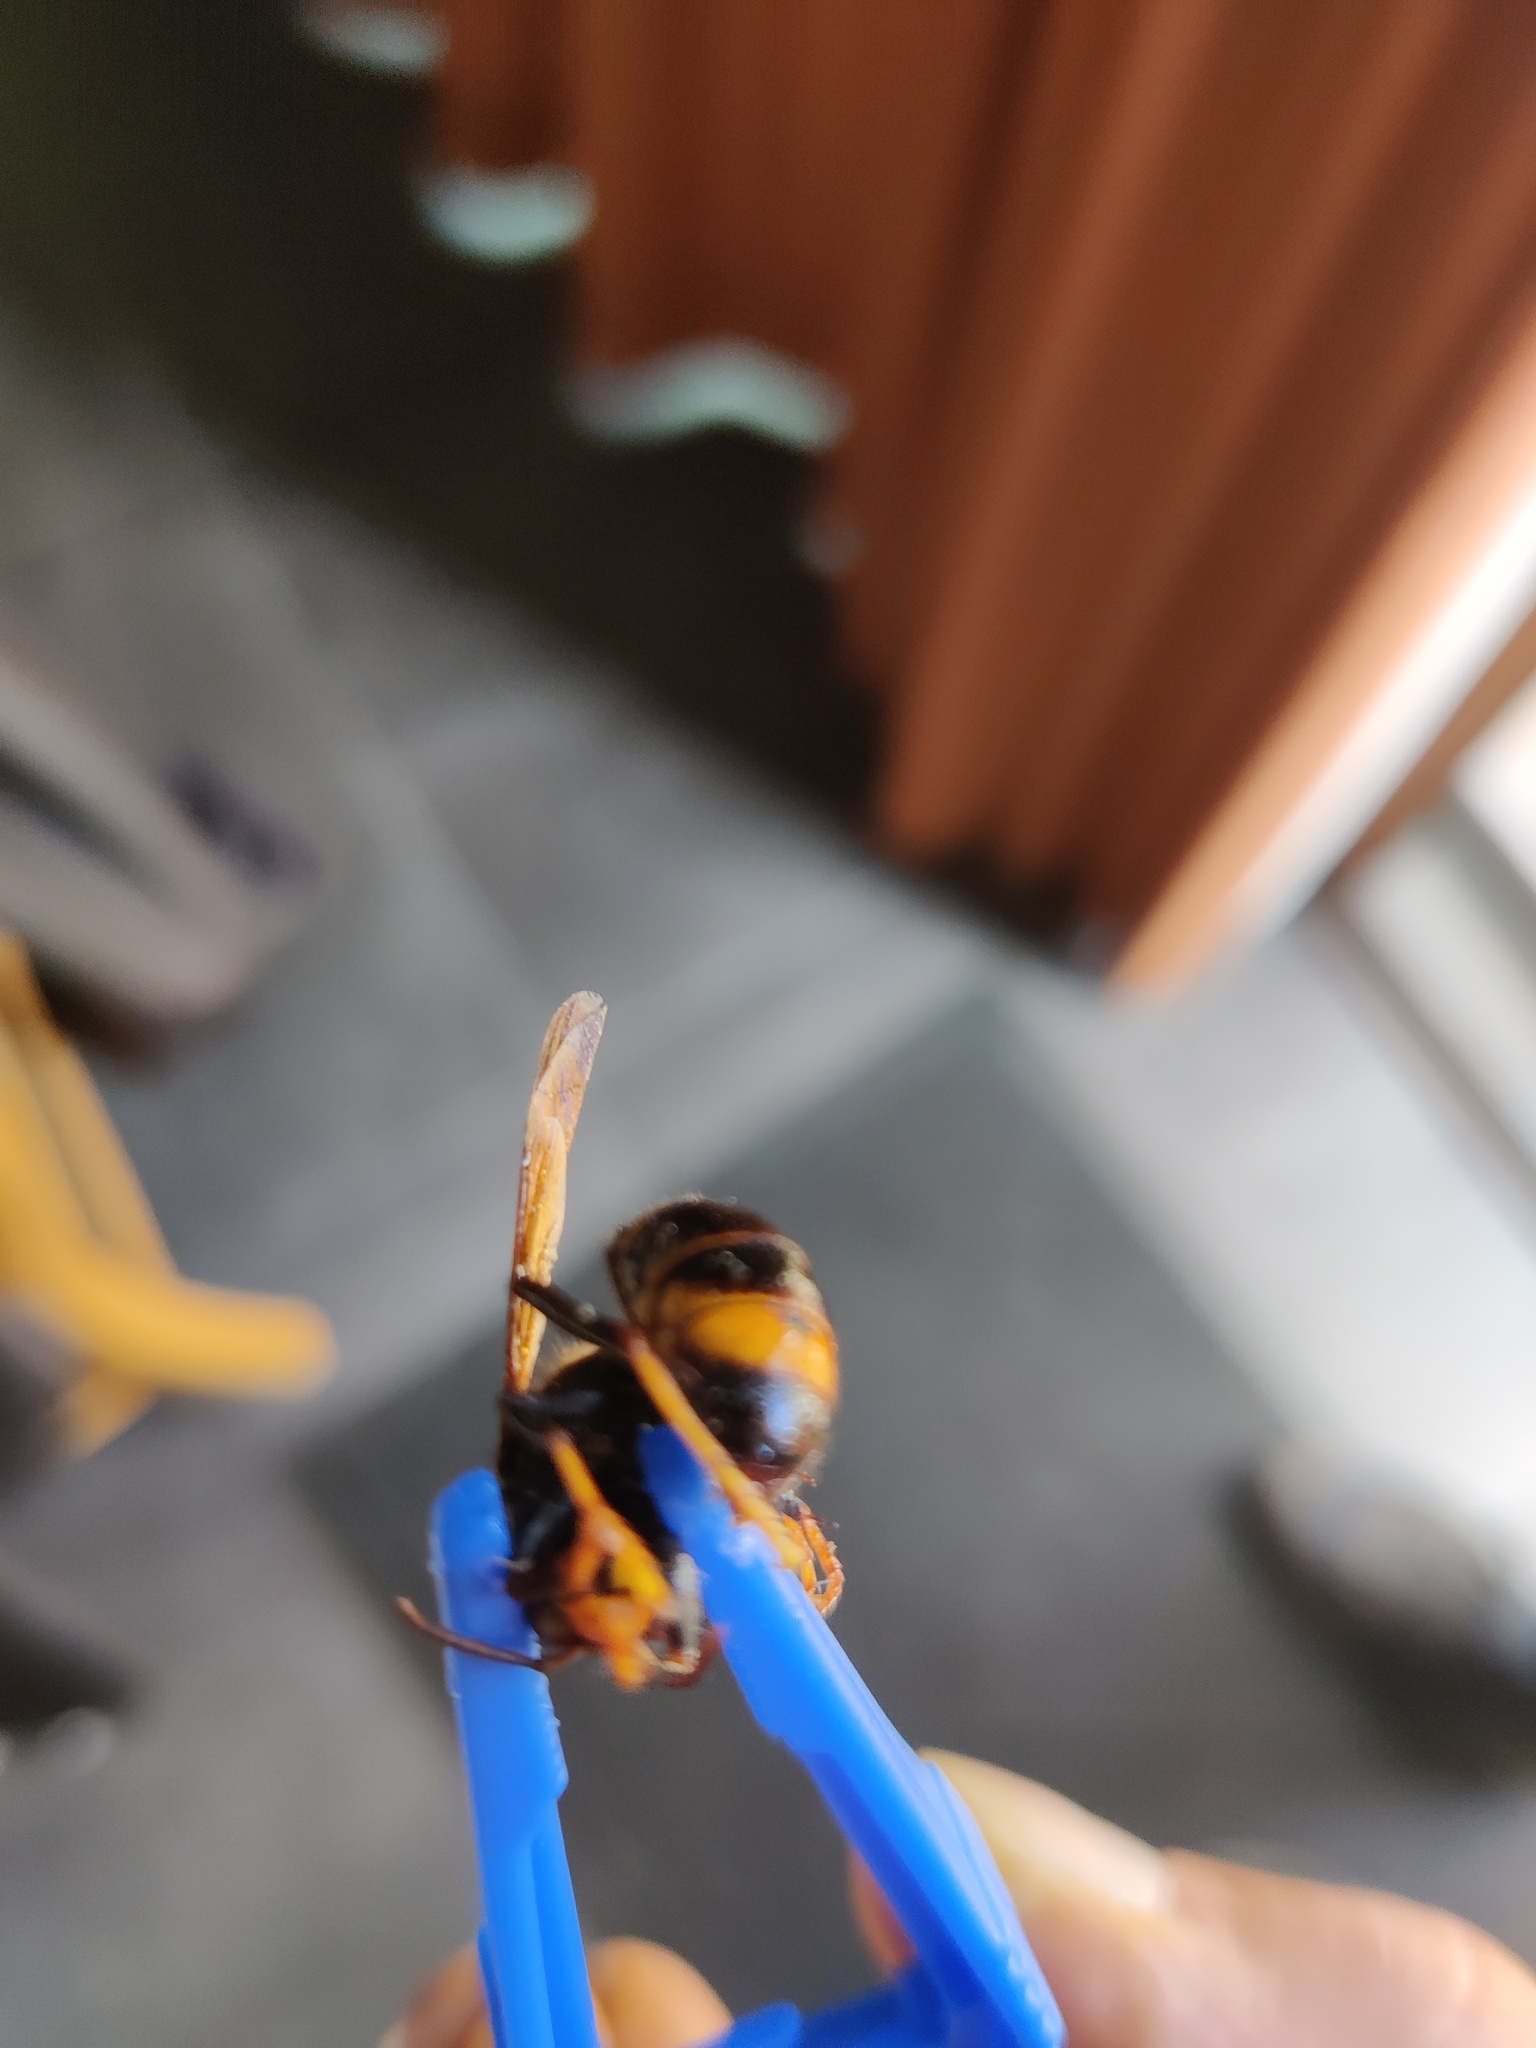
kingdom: Animalia
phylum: Arthropoda
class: Insecta
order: Hymenoptera
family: Vespidae
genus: Vespa
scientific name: Vespa velutina
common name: Asian hornet
